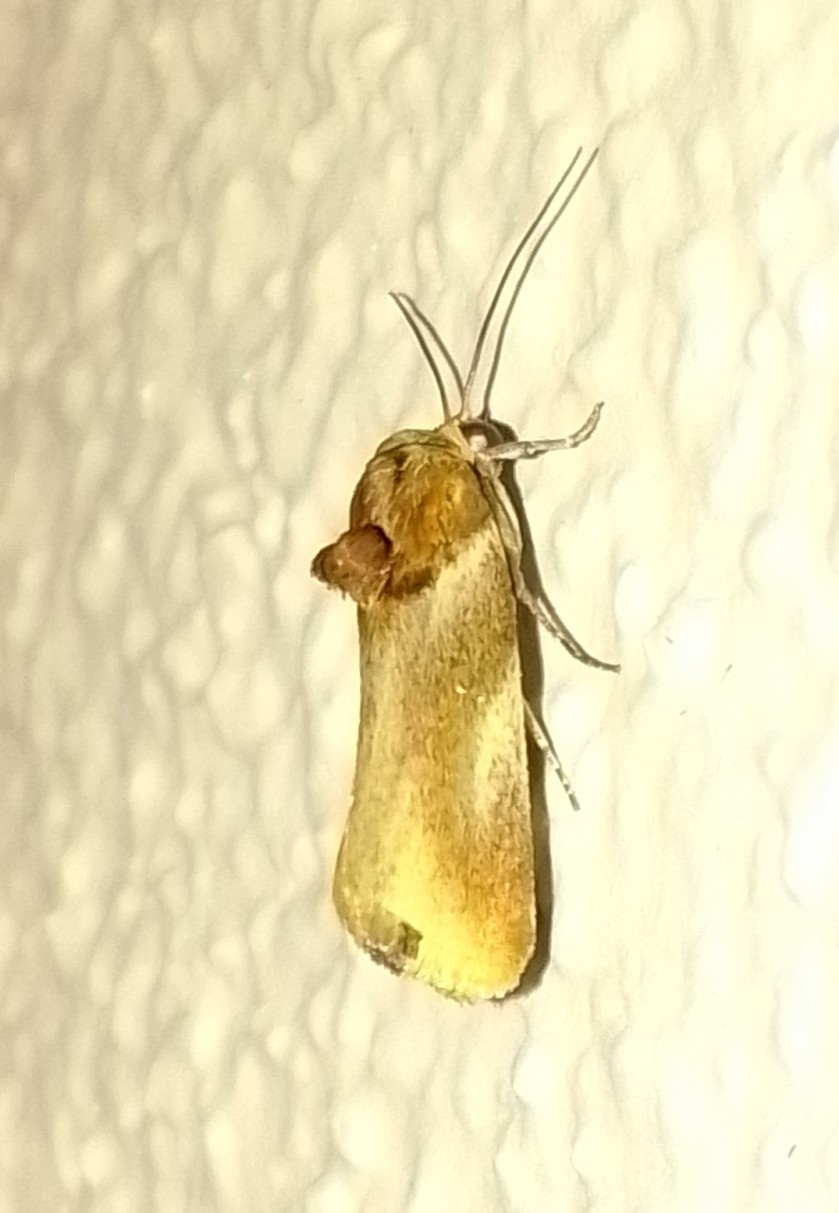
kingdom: Animalia
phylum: Arthropoda
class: Insecta
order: Lepidoptera
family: Noctuidae
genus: Spragueia
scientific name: Spragueia
